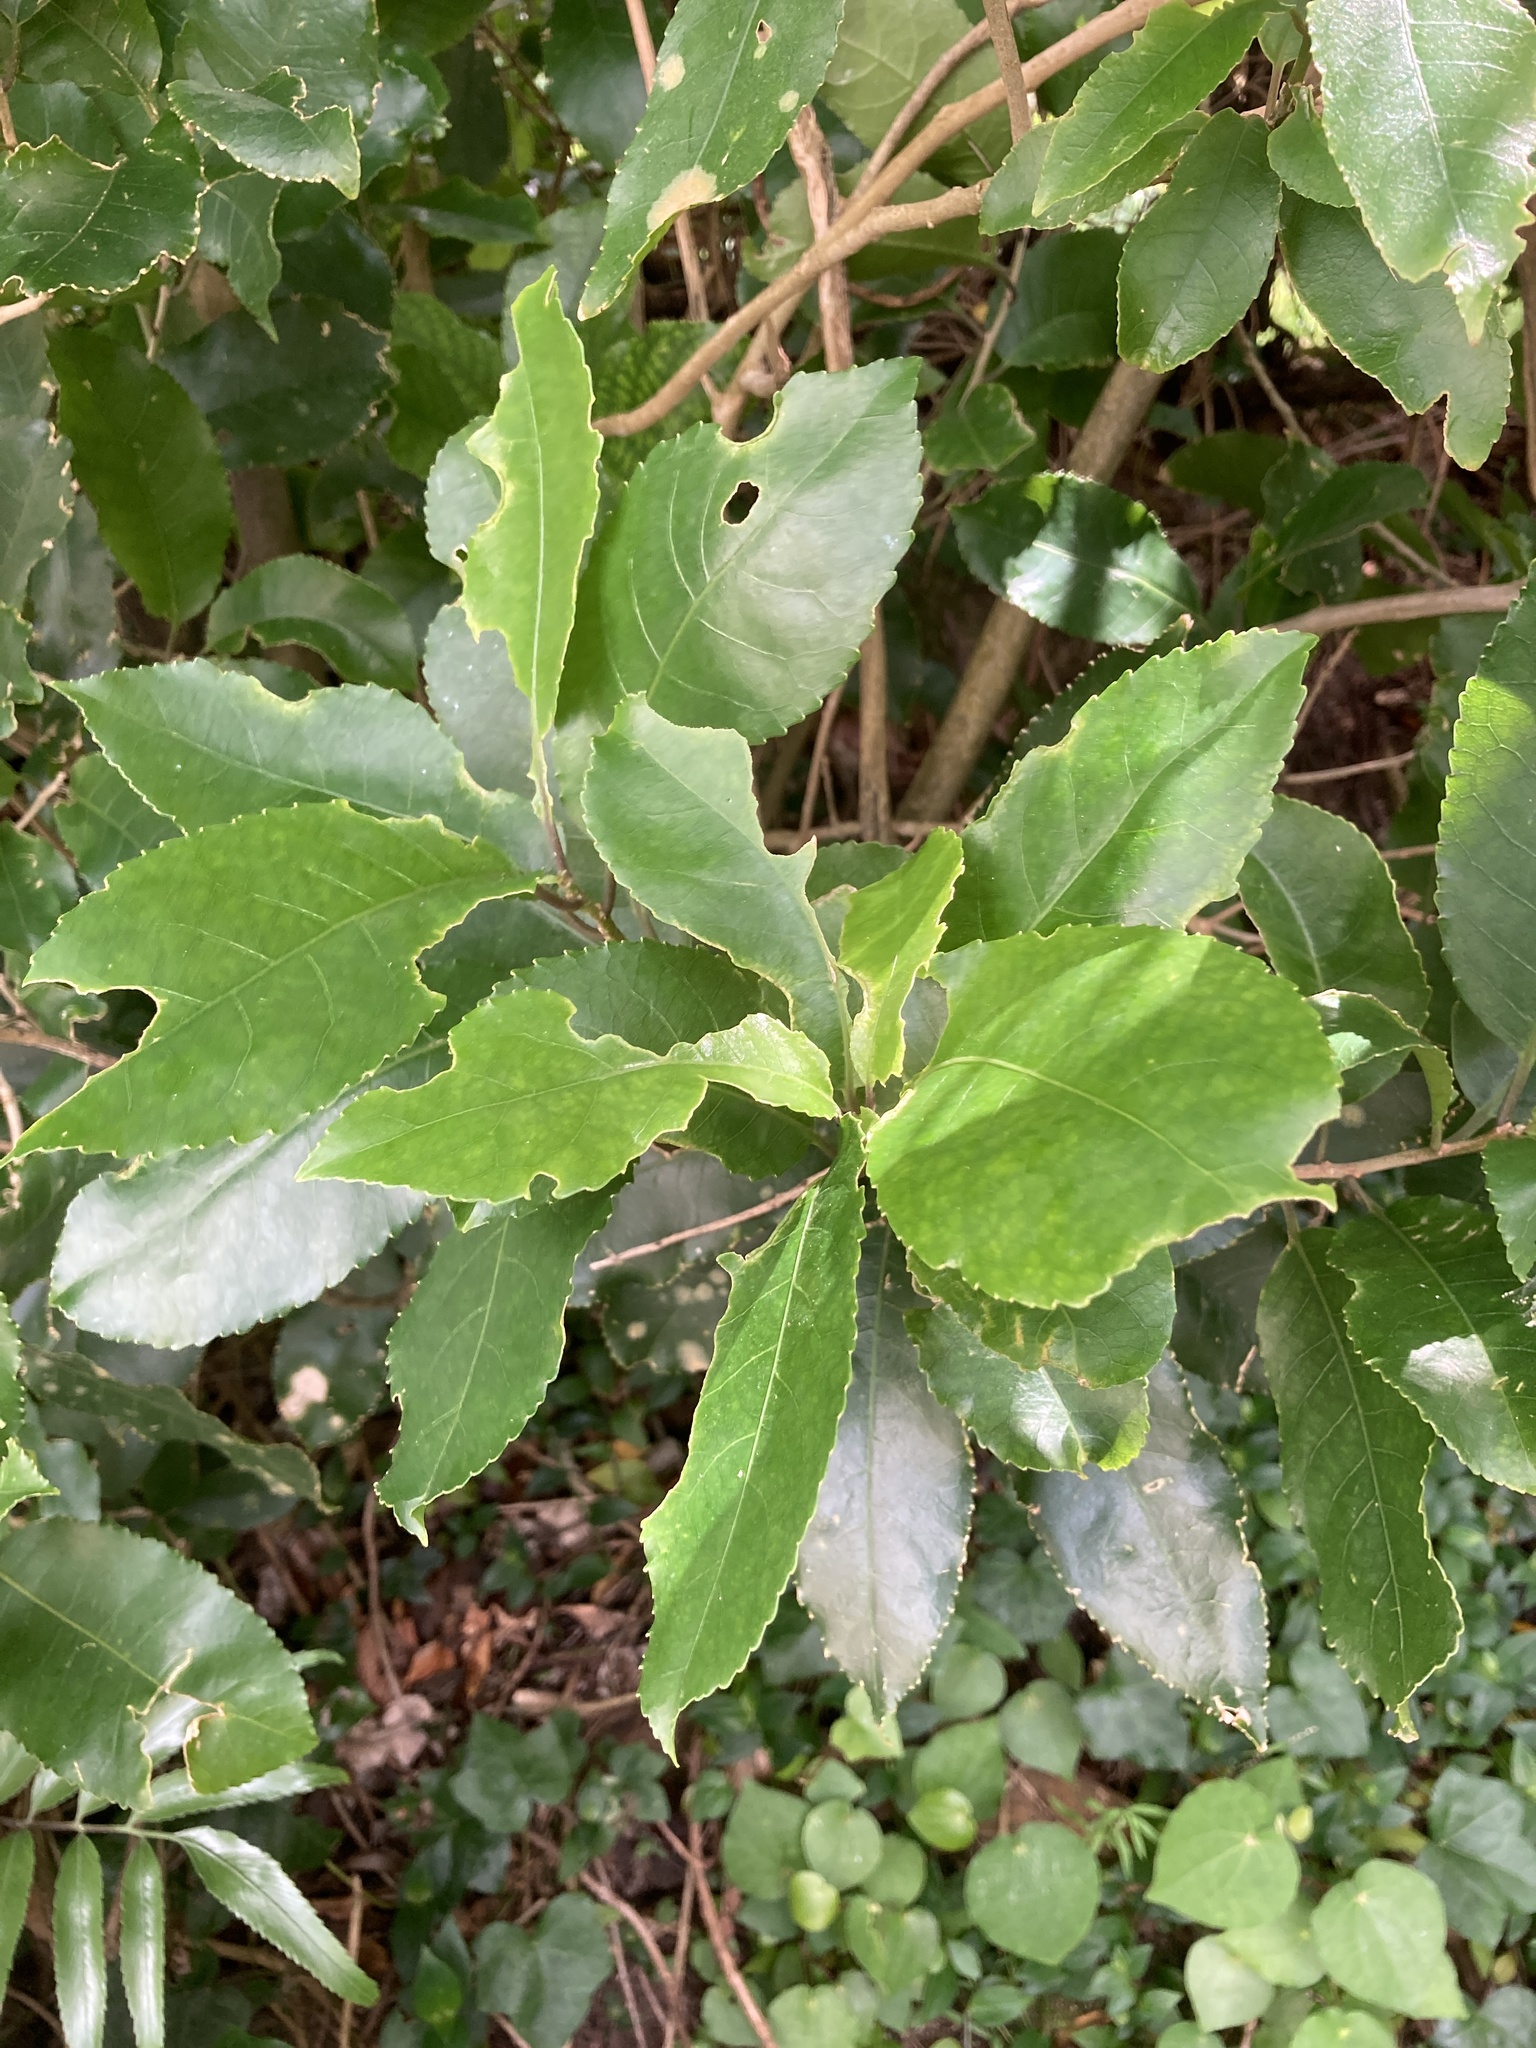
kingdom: Plantae
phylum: Chlorophyta
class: Ulvophyceae
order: Trentepohliales
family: Trentepohliaceae
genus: Cephaleuros
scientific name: Cephaleuros
